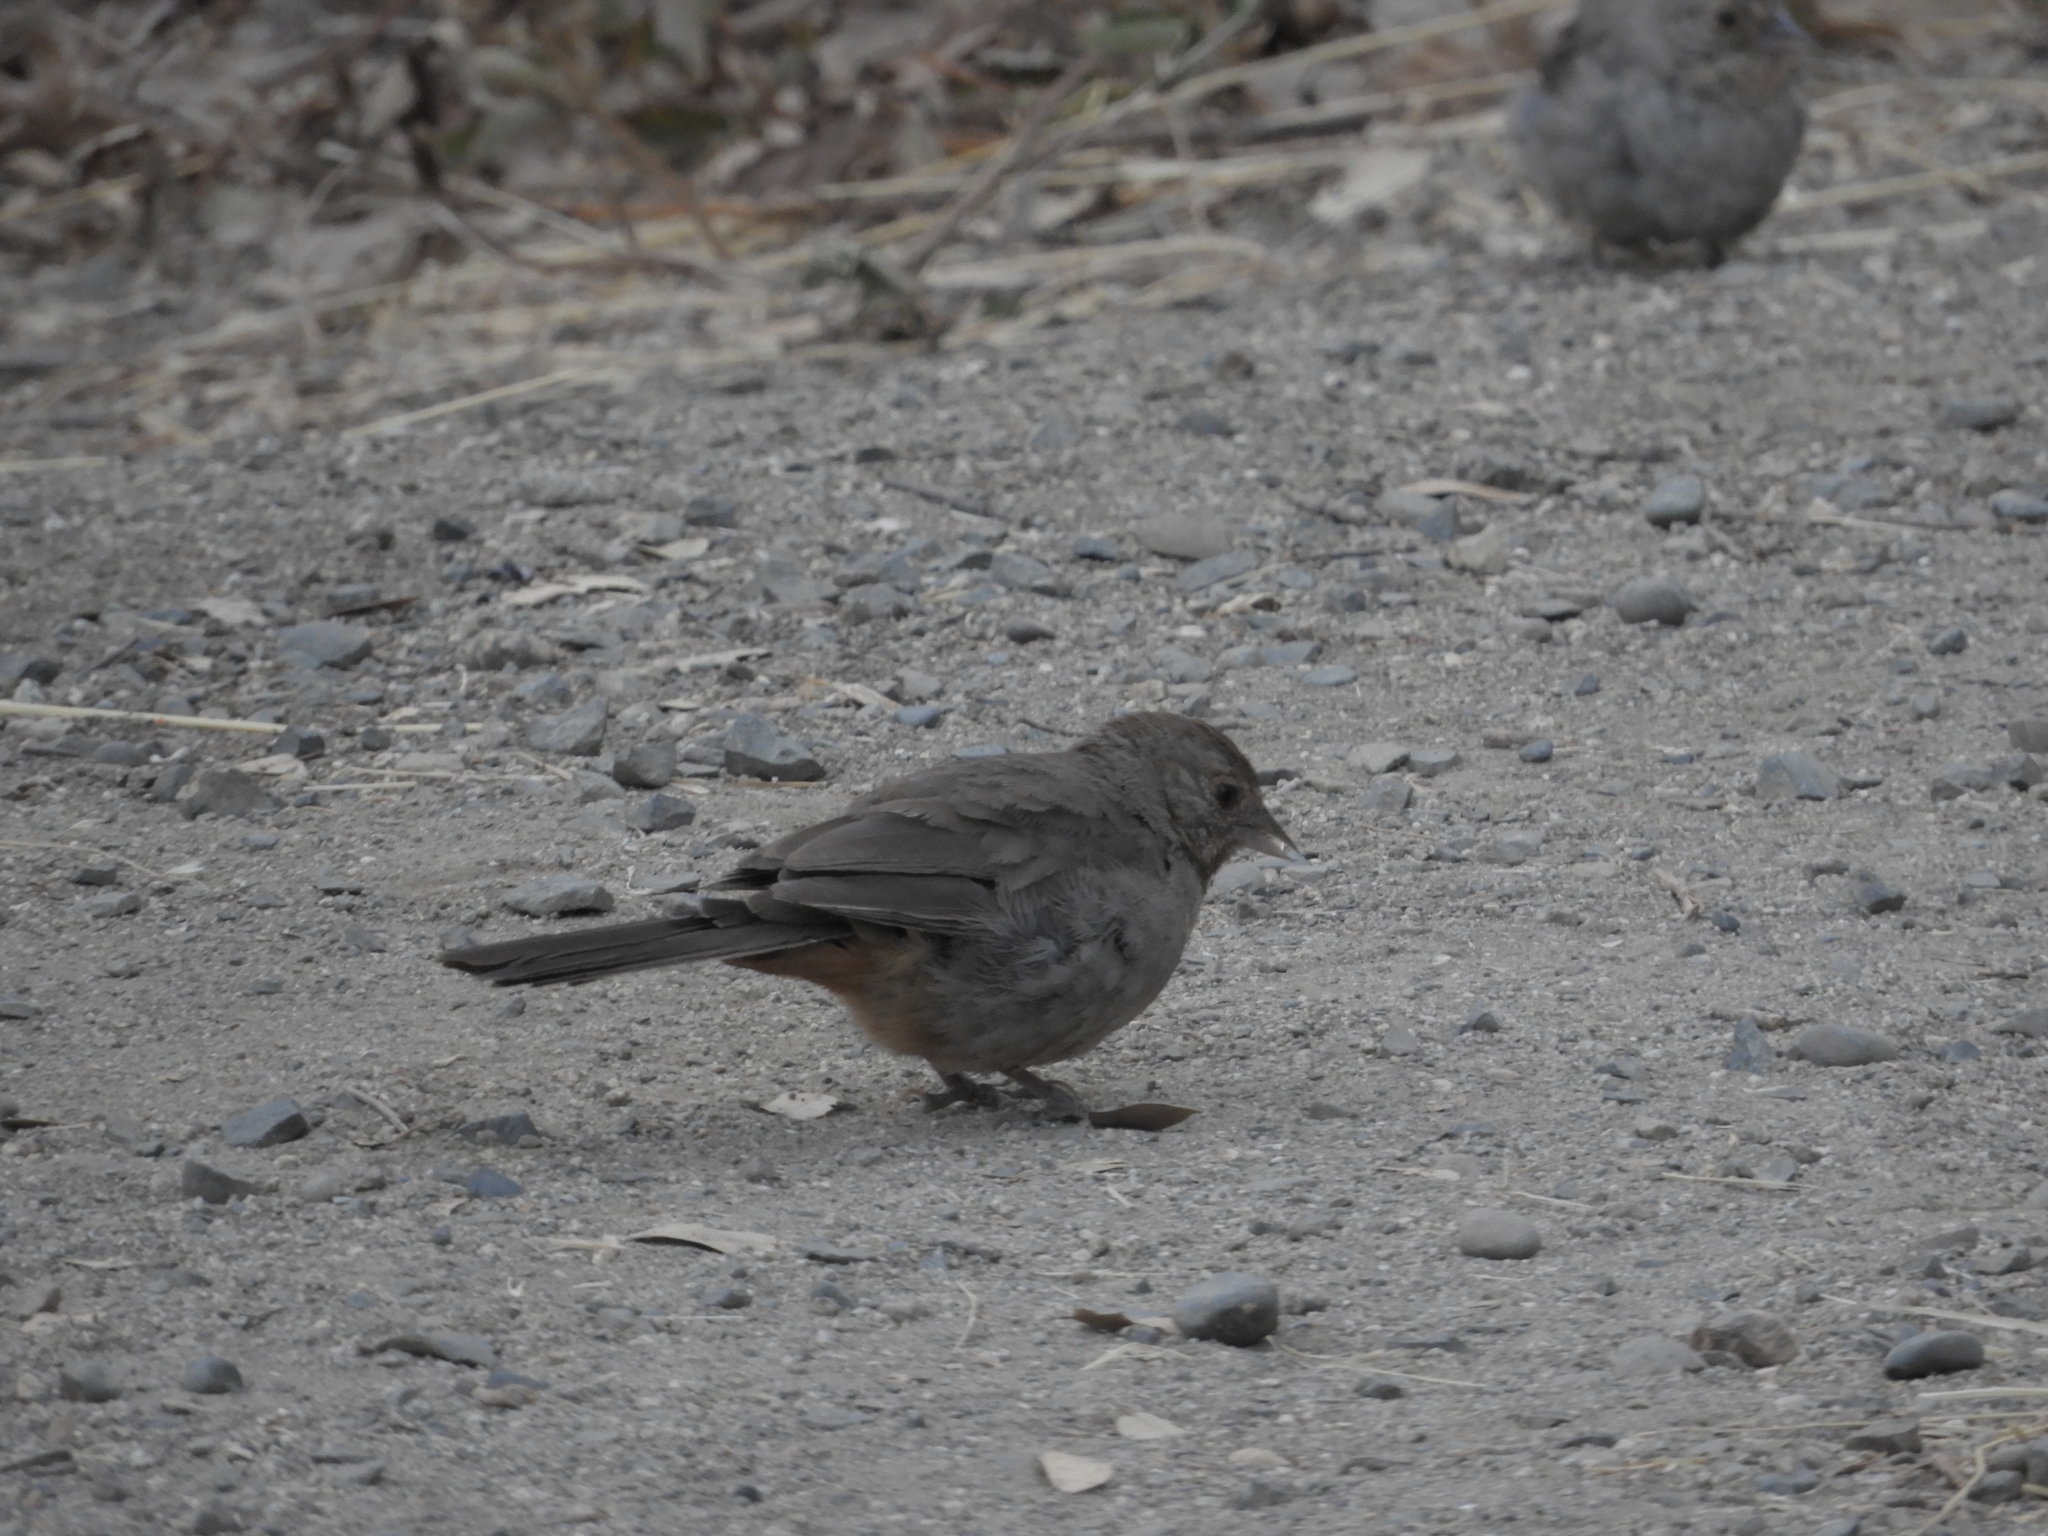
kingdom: Animalia
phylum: Chordata
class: Aves
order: Passeriformes
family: Passerellidae
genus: Melozone
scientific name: Melozone crissalis
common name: California towhee
